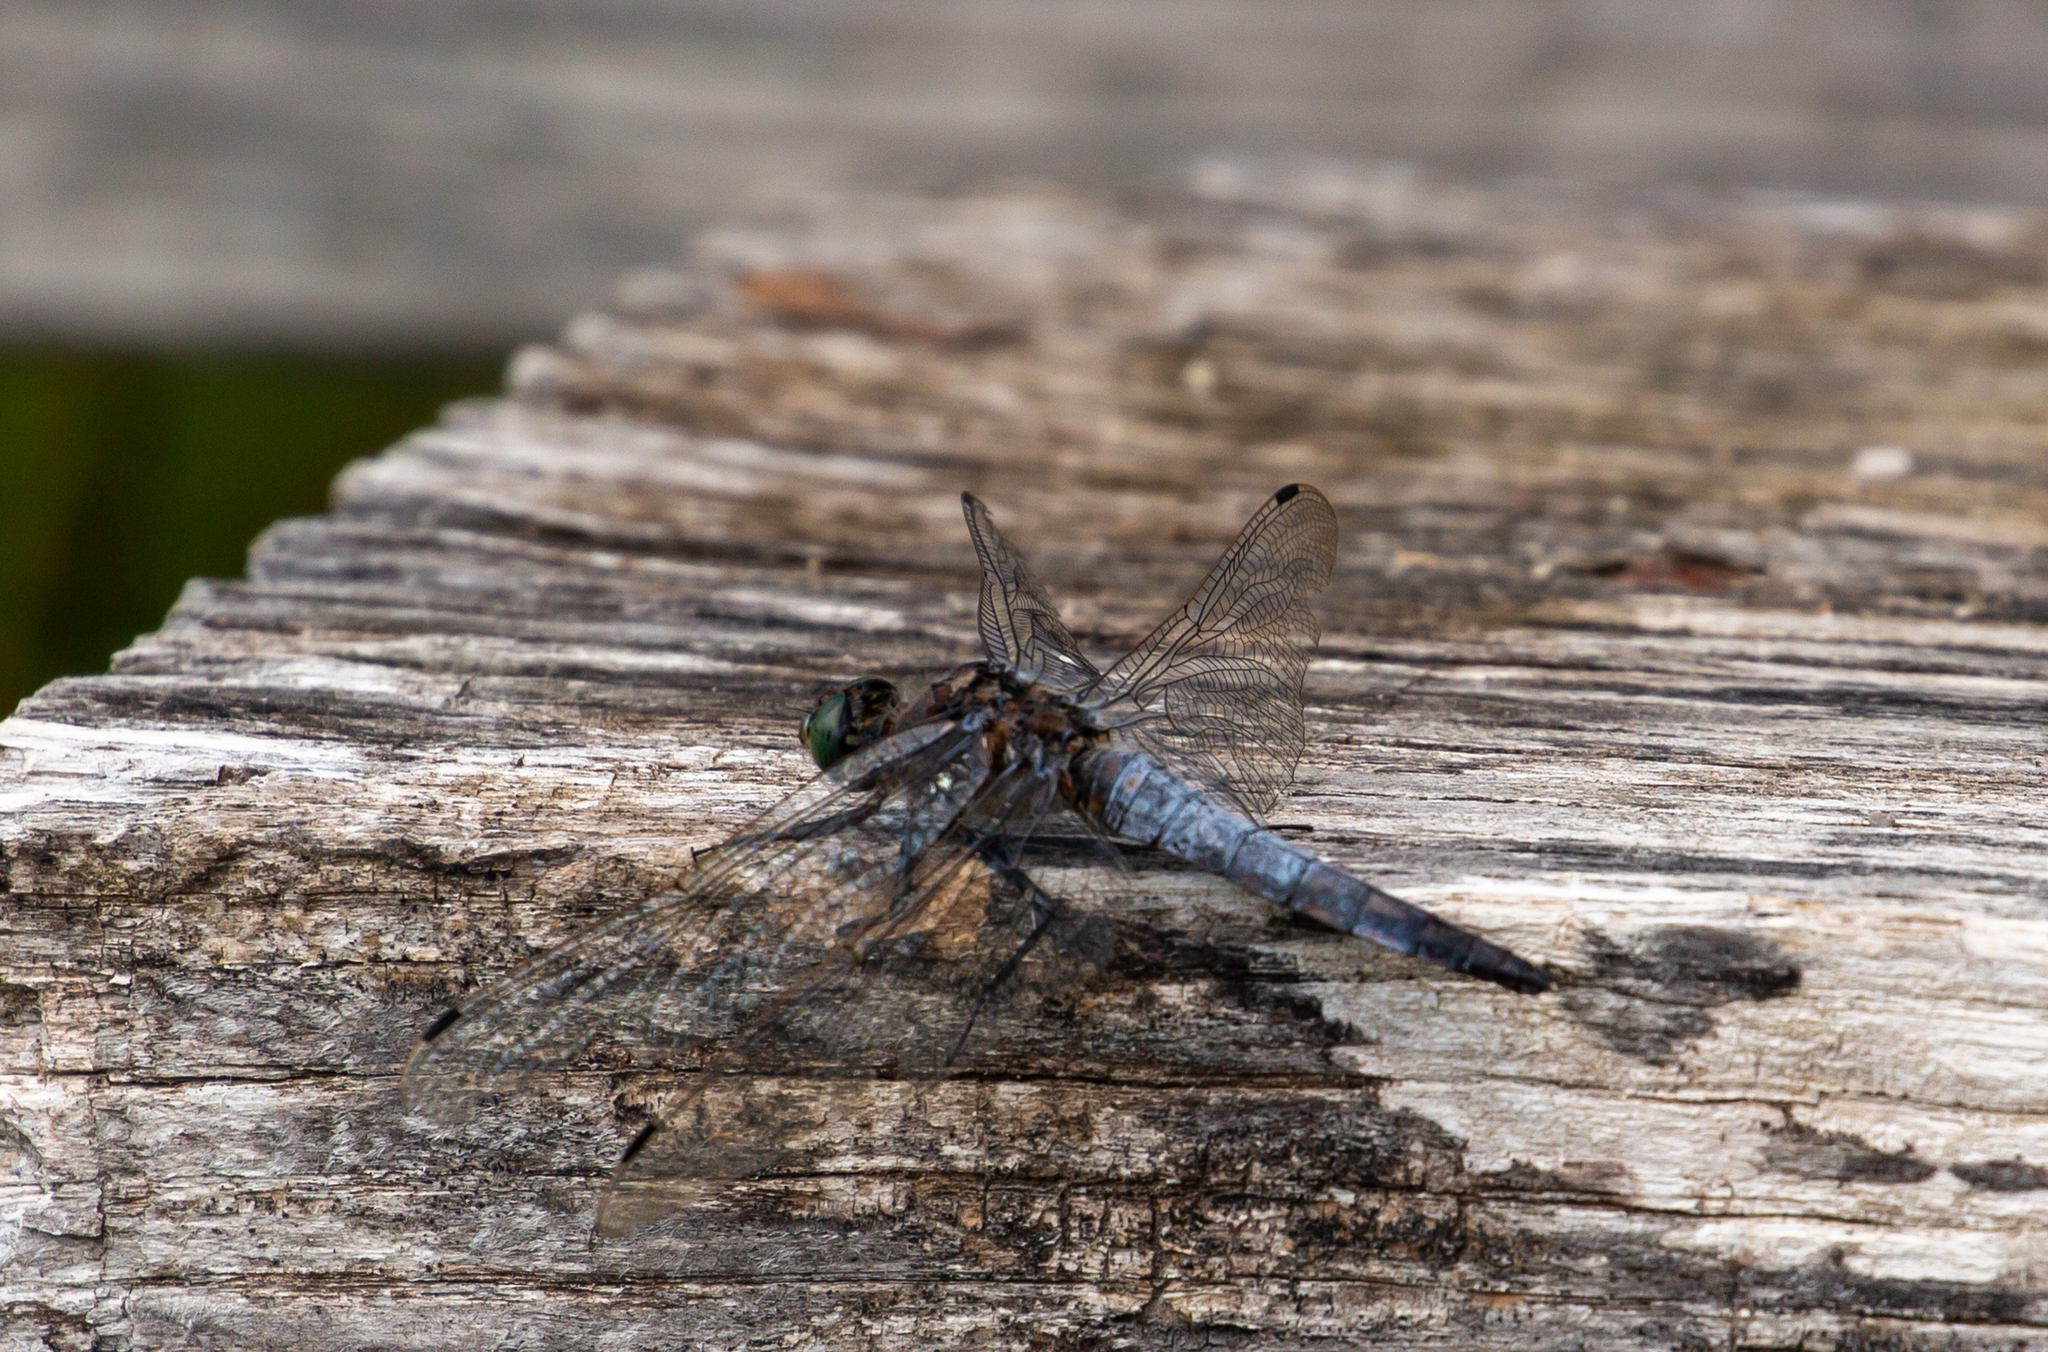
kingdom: Animalia
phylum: Arthropoda
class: Insecta
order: Odonata
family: Libellulidae
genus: Orthetrum
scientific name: Orthetrum cancellatum
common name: Black-tailed skimmer
